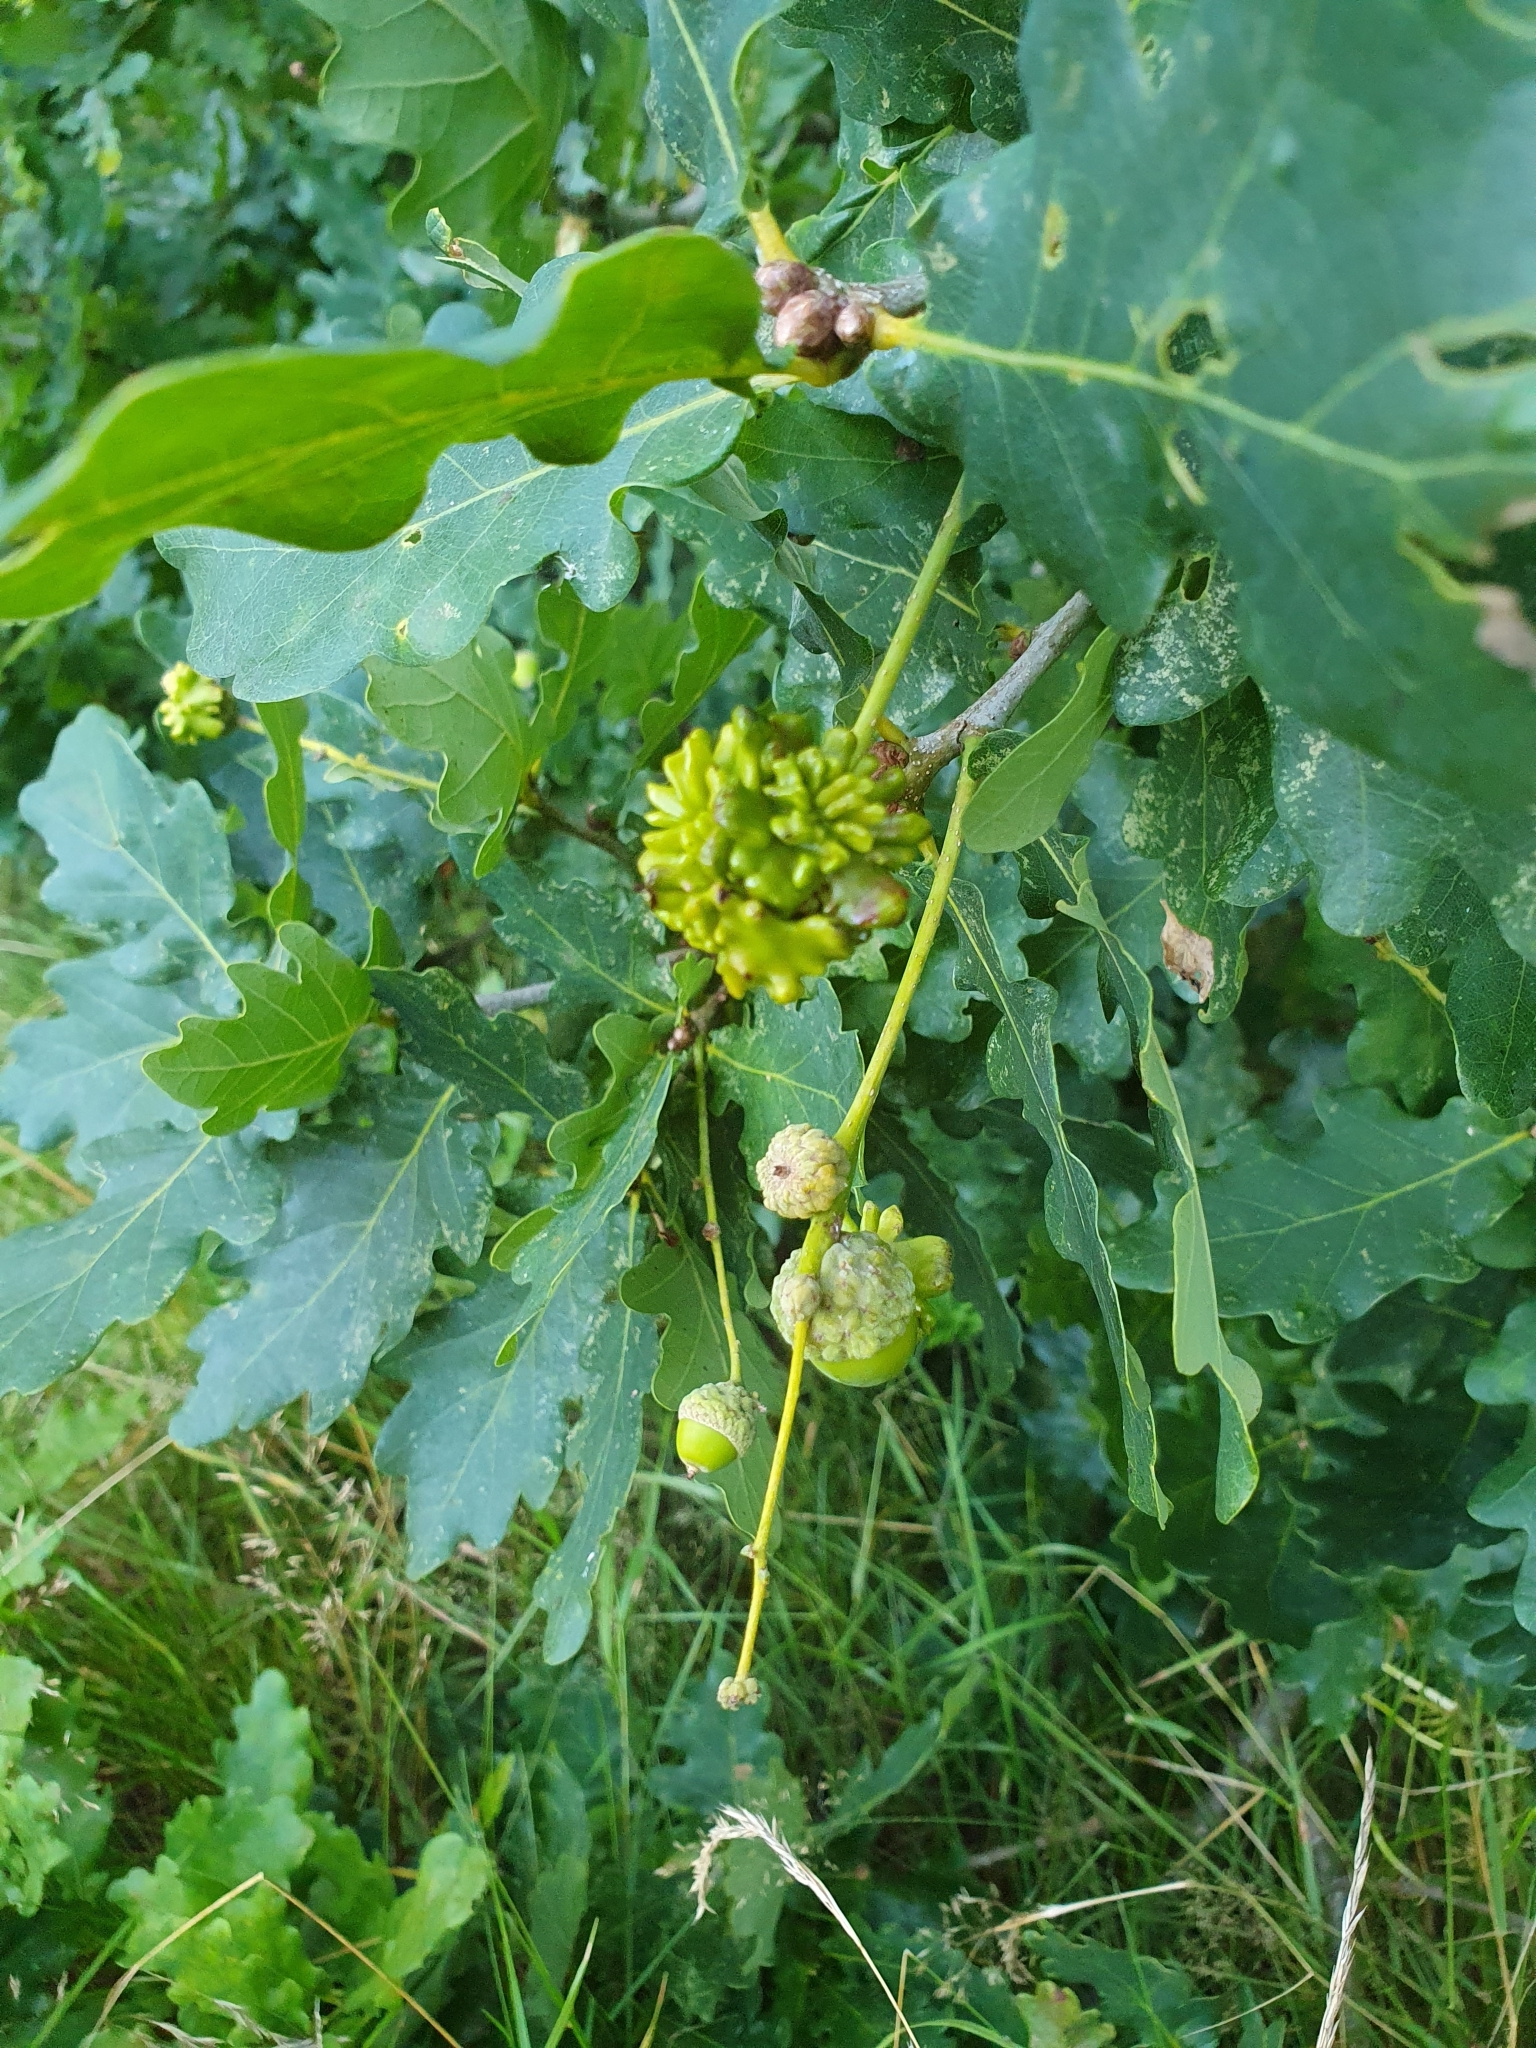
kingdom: Animalia
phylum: Arthropoda
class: Insecta
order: Hymenoptera
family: Cynipidae
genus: Andricus
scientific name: Andricus quercuscalicis
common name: Knopper gall
